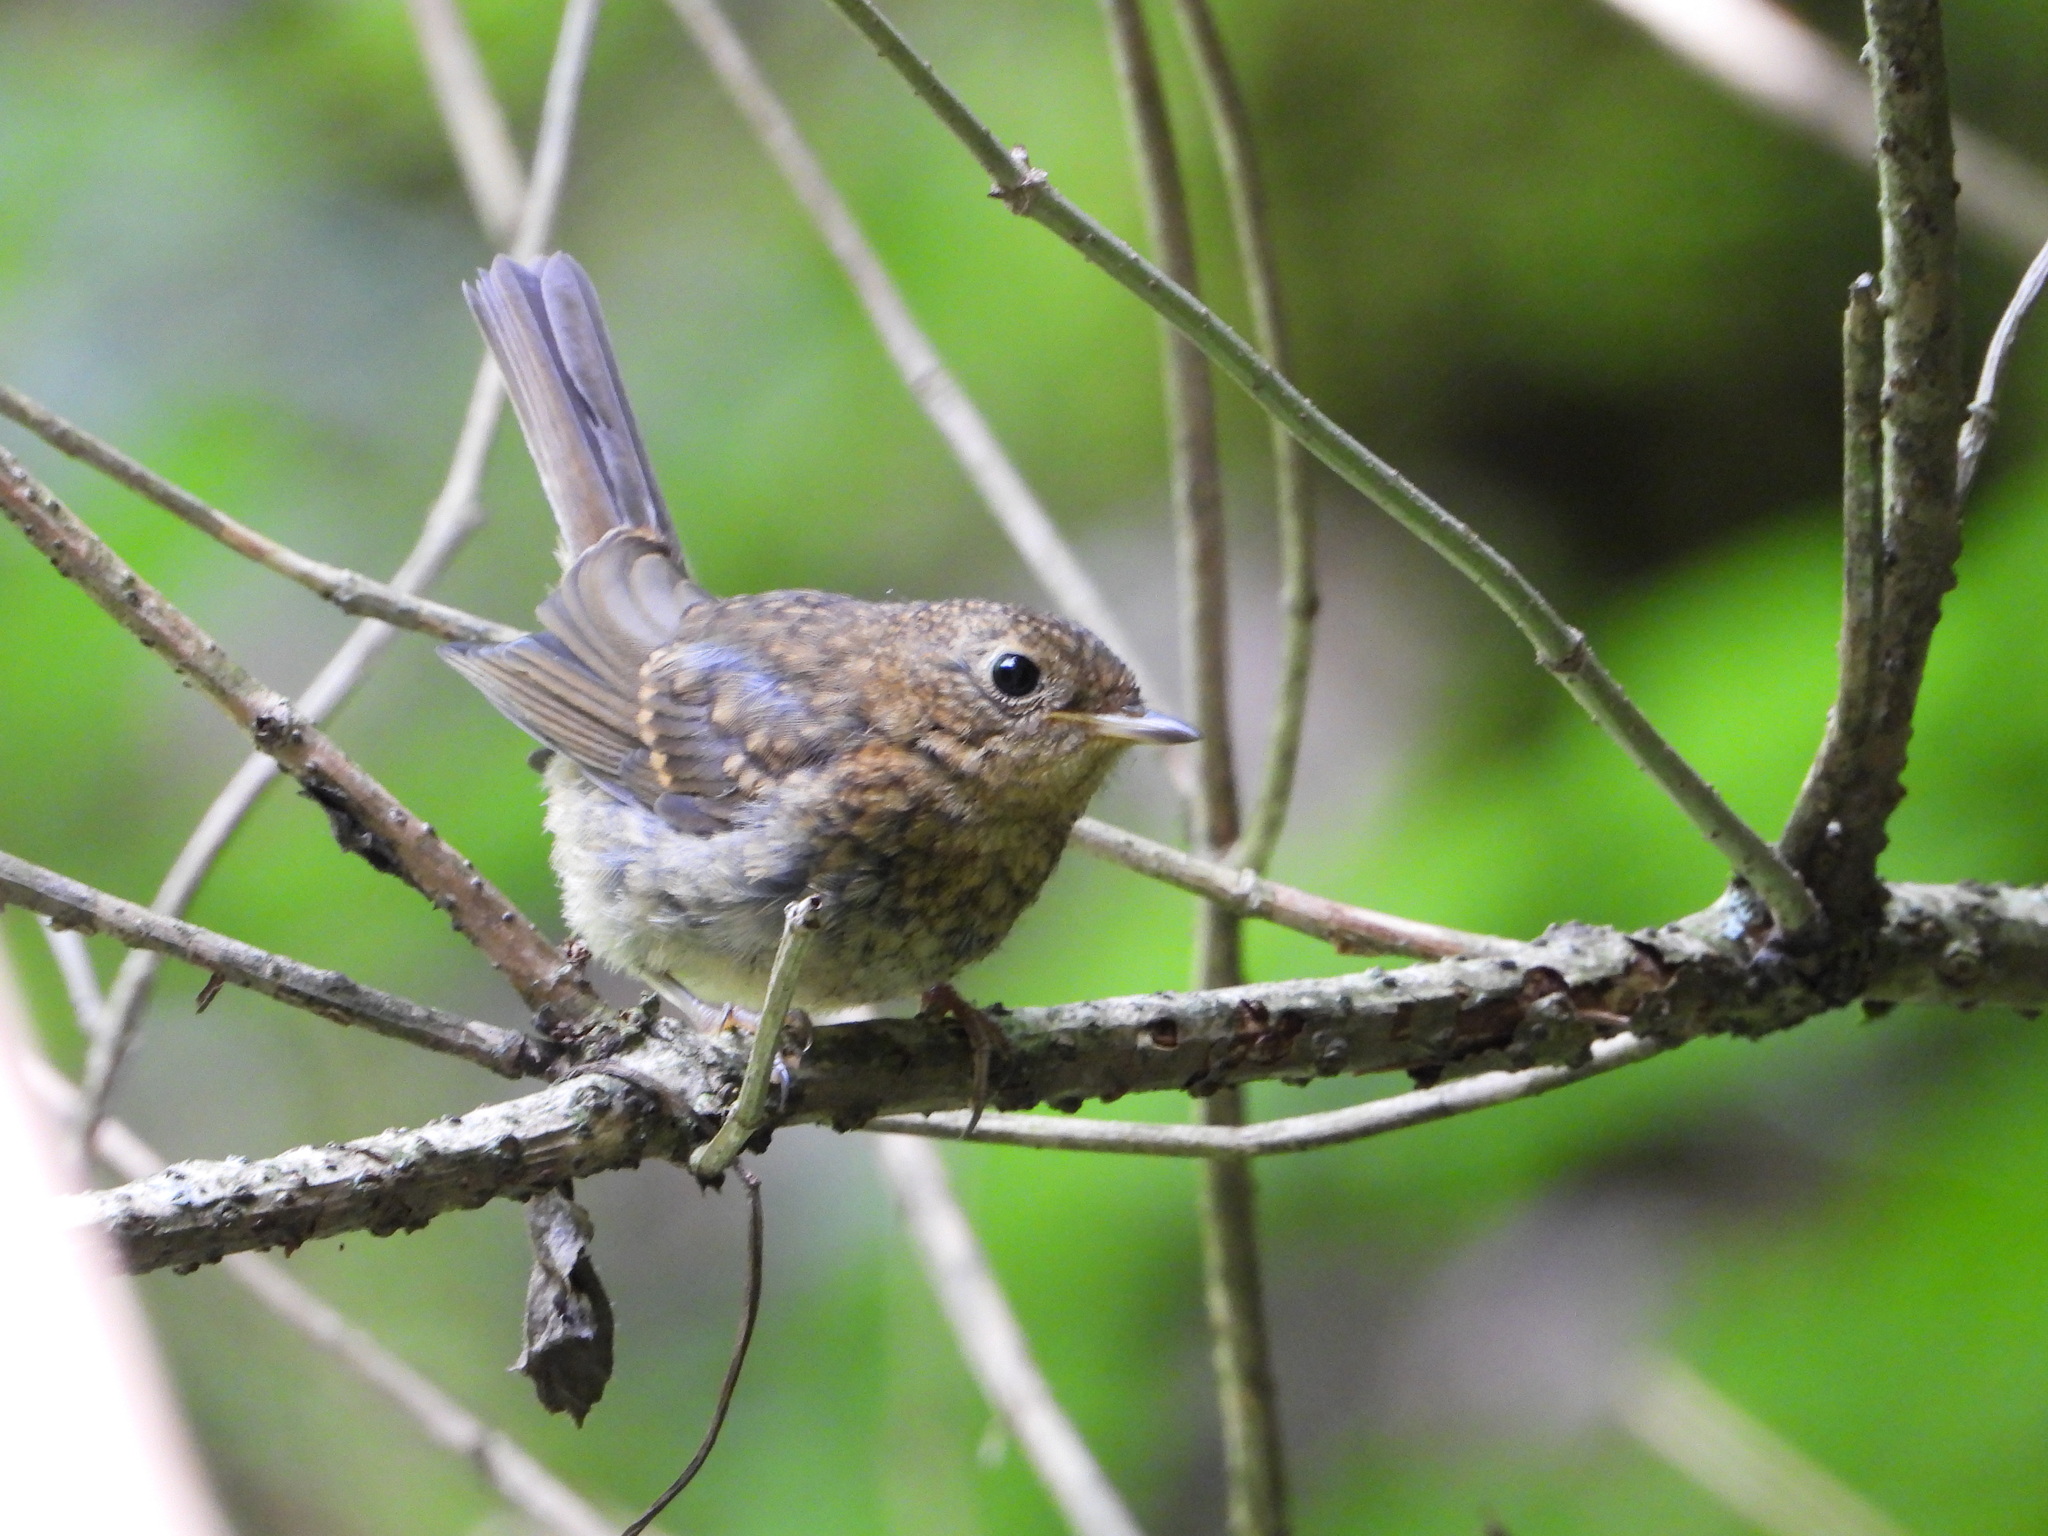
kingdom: Animalia
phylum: Chordata
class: Aves
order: Passeriformes
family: Muscicapidae
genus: Erithacus
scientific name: Erithacus rubecula
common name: European robin
